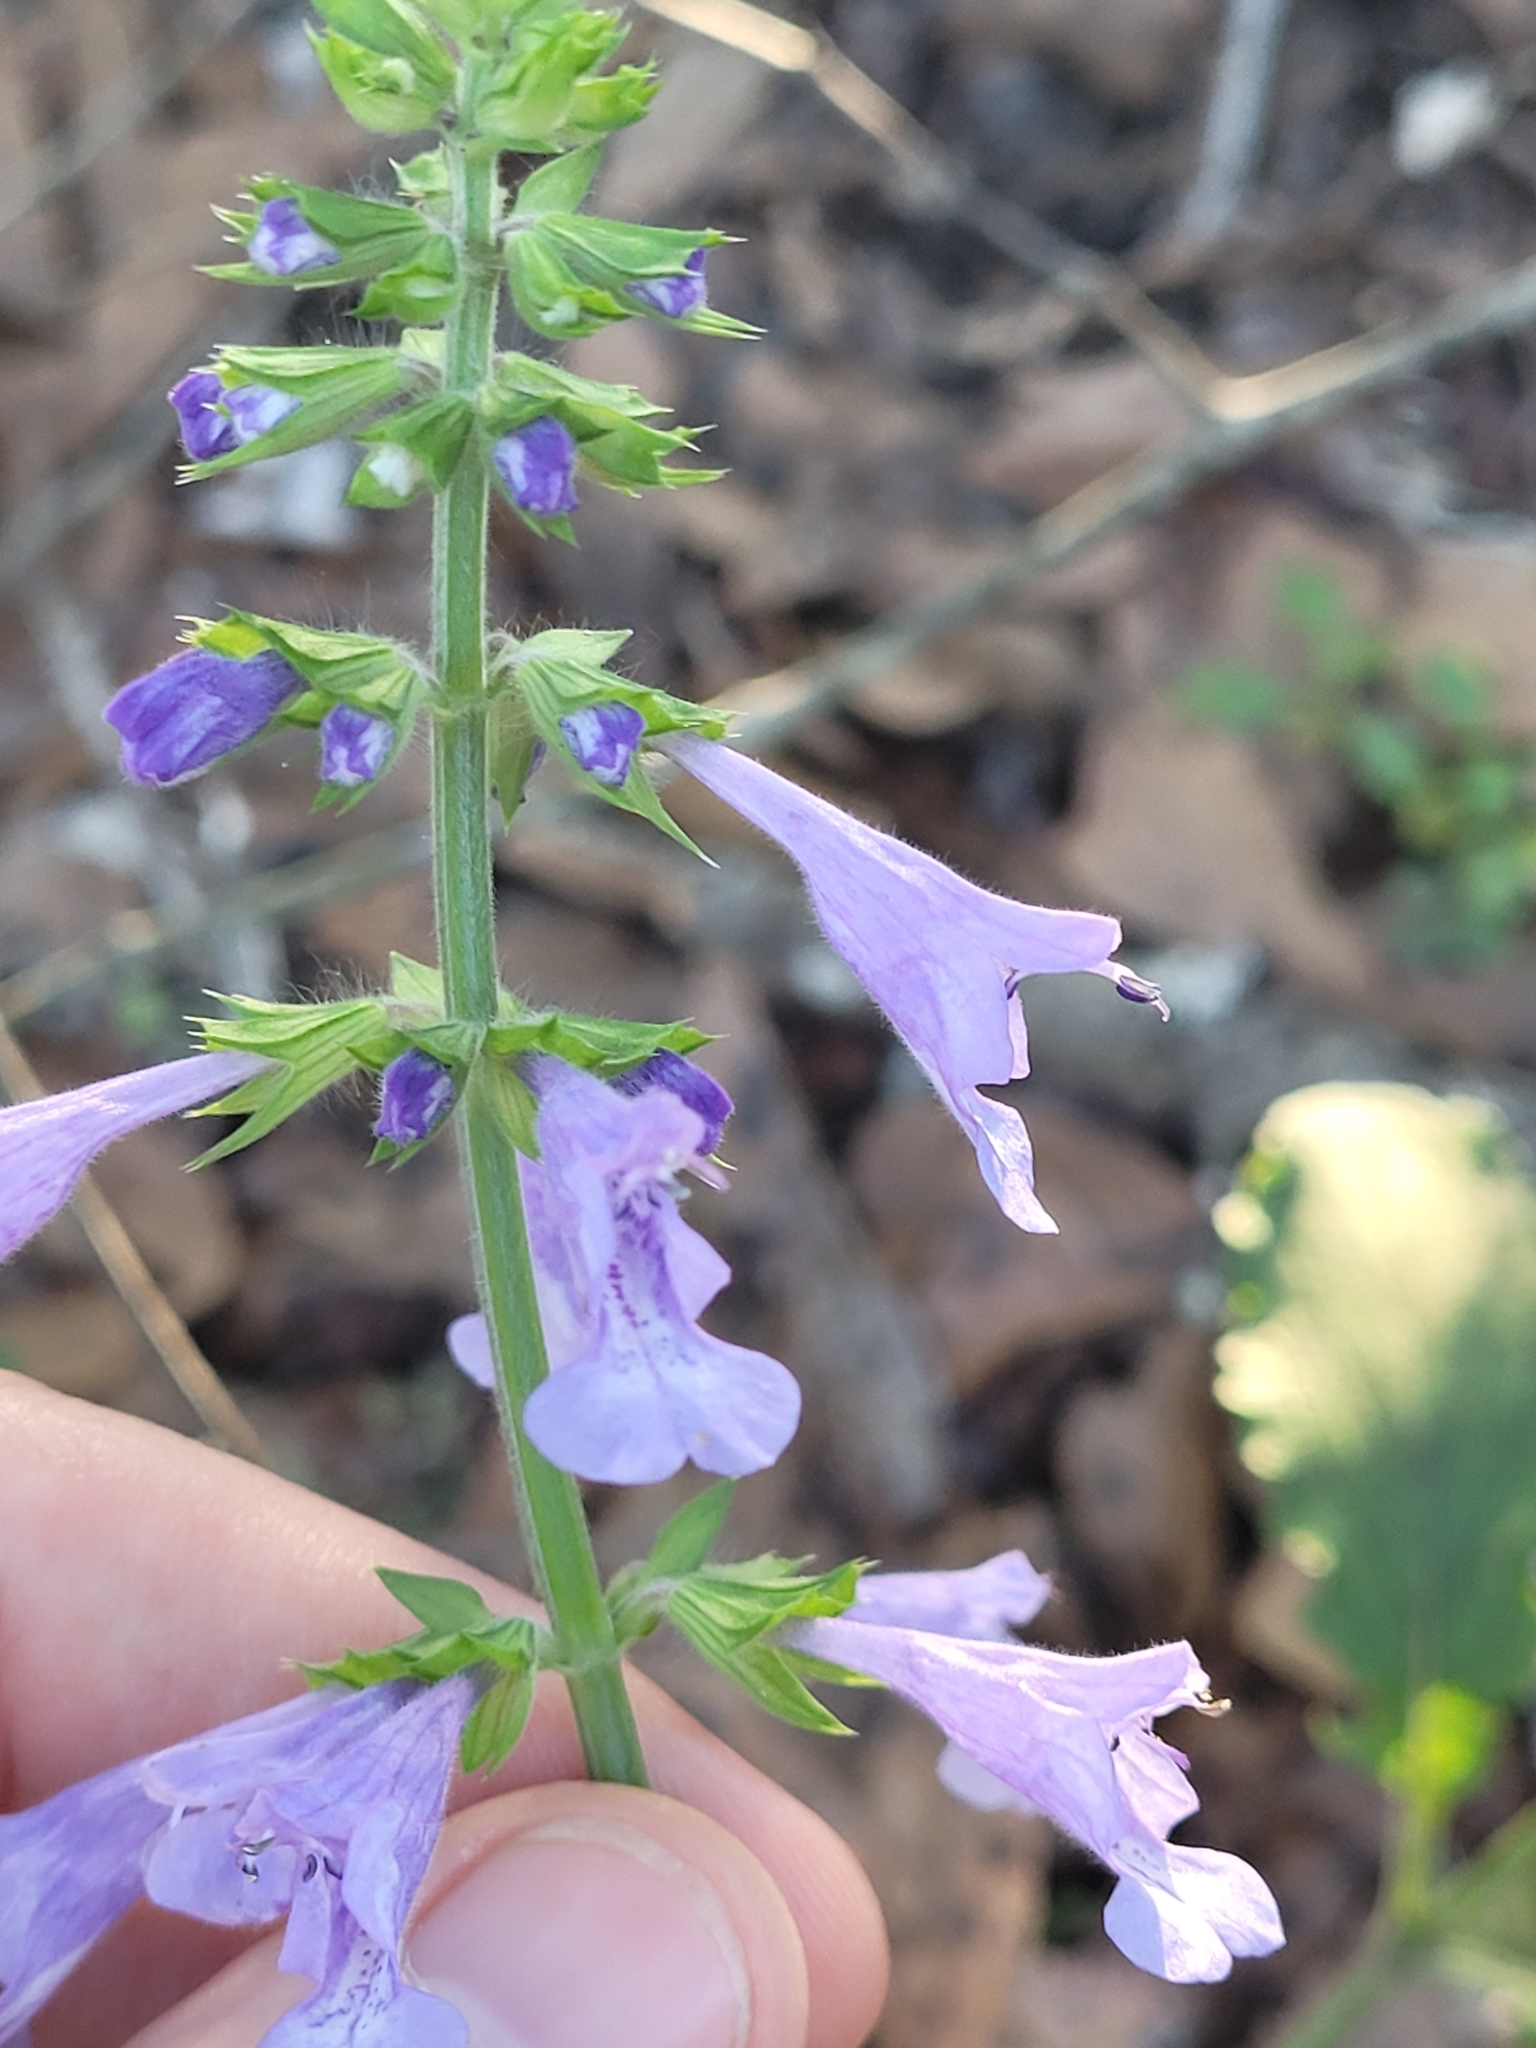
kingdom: Plantae
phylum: Tracheophyta
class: Magnoliopsida
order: Lamiales
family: Lamiaceae
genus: Salvia
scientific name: Salvia lyrata
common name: Cancerweed
